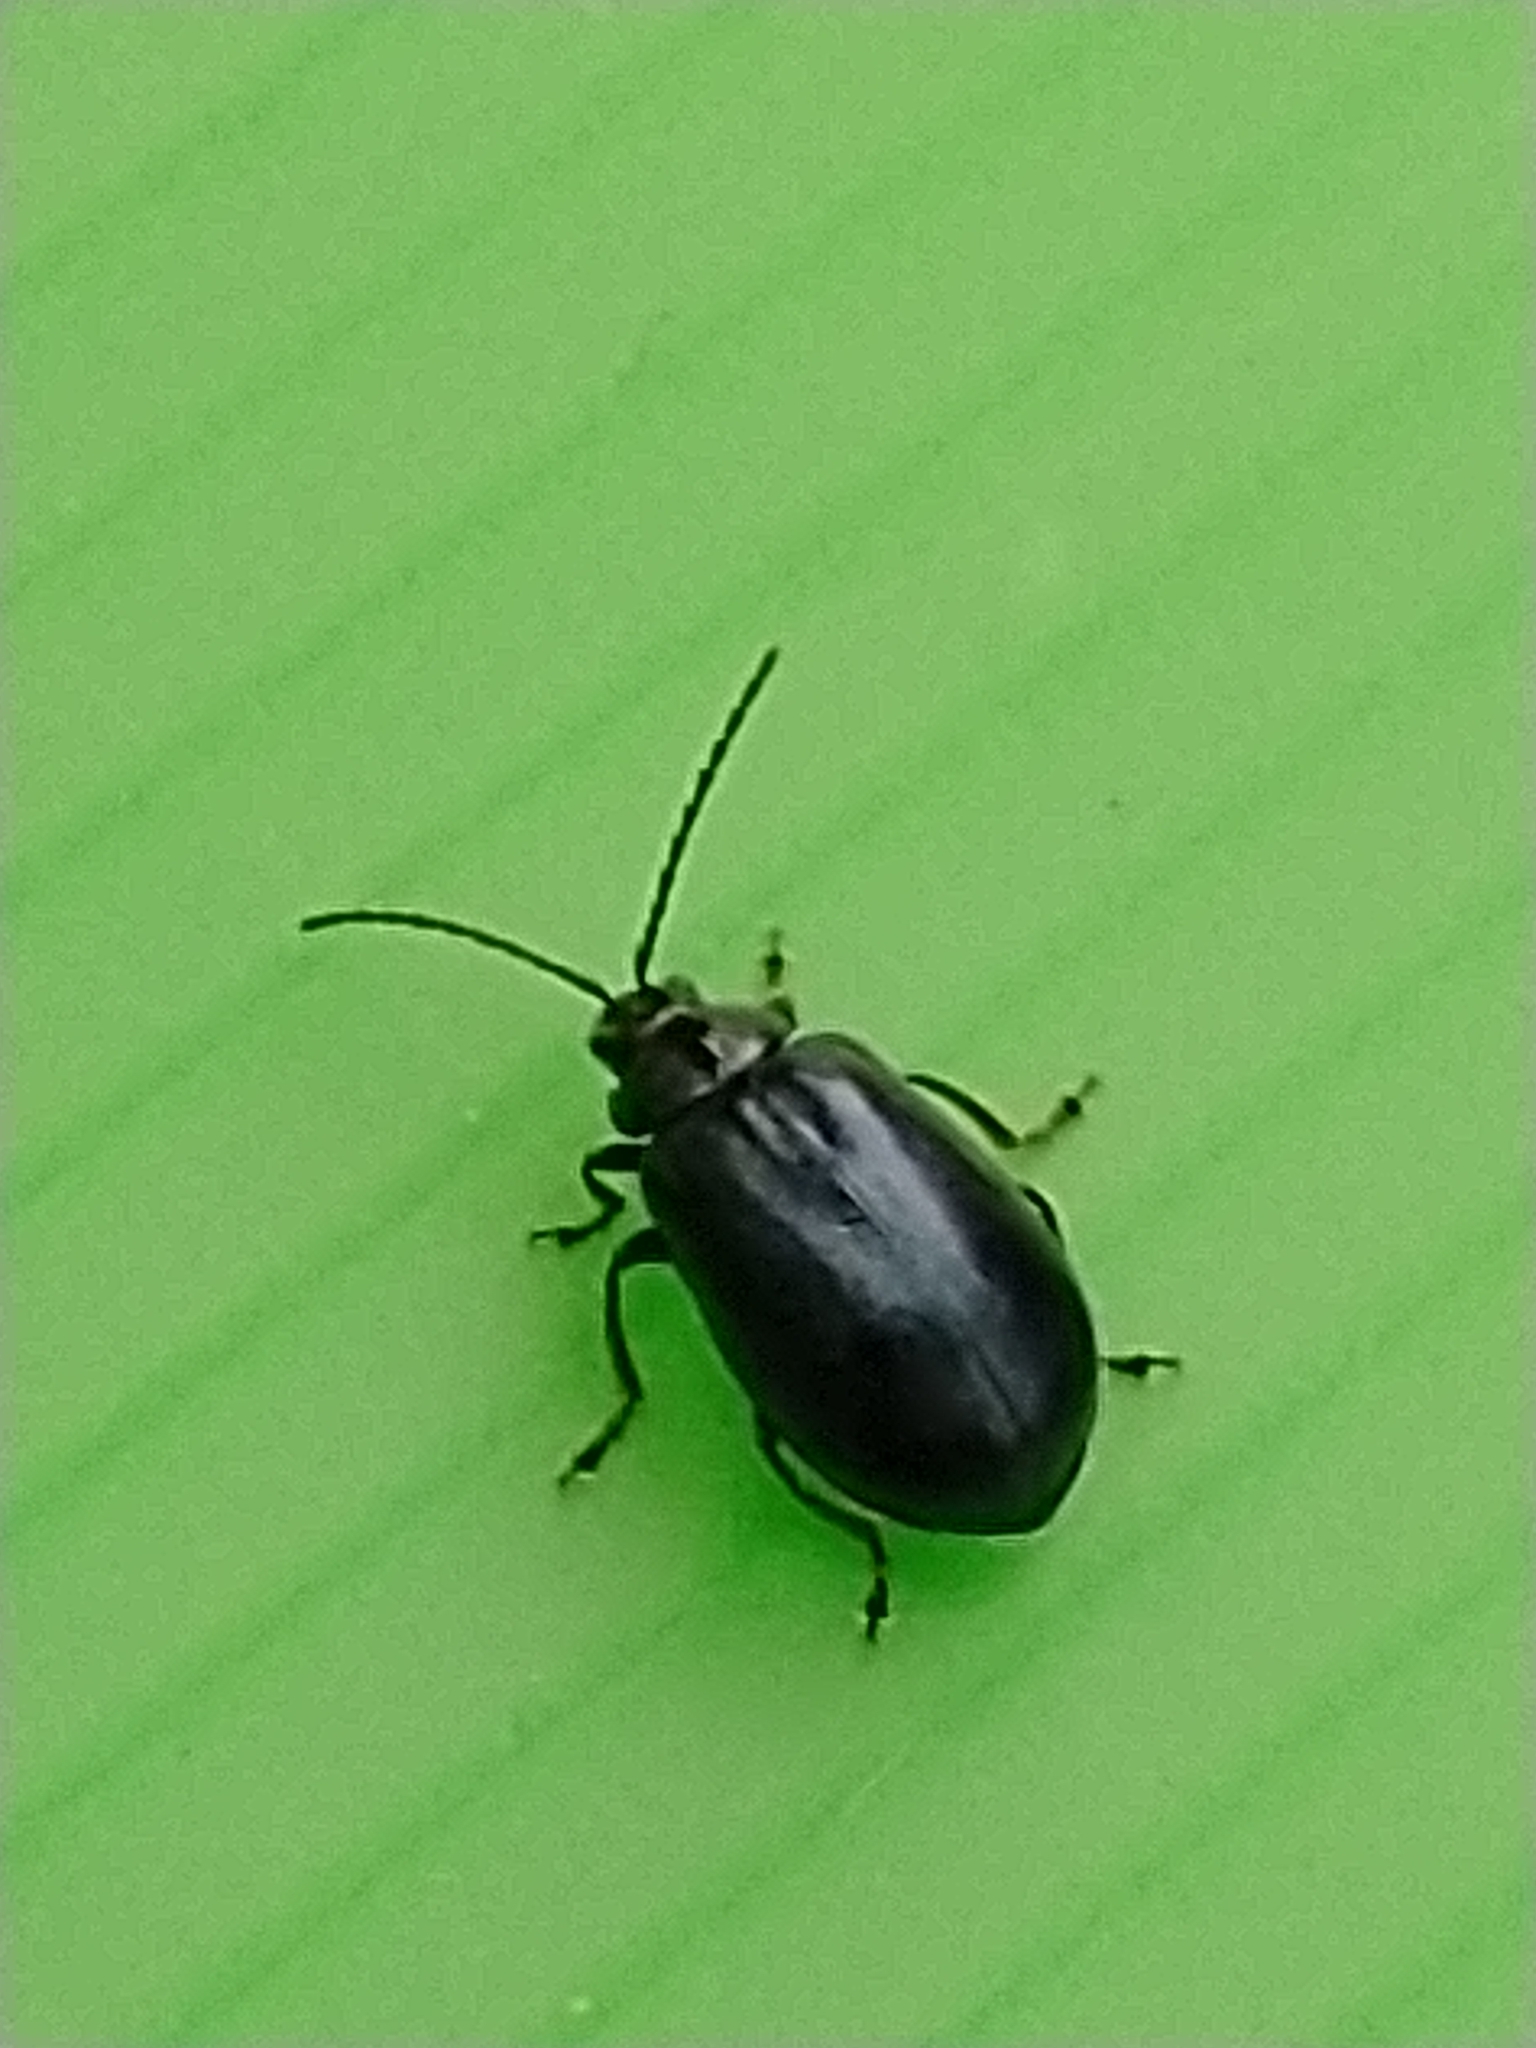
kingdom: Animalia
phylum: Arthropoda
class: Insecta
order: Coleoptera
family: Chrysomelidae
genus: Agelastica
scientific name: Agelastica alni
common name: Alder leaf beetle
